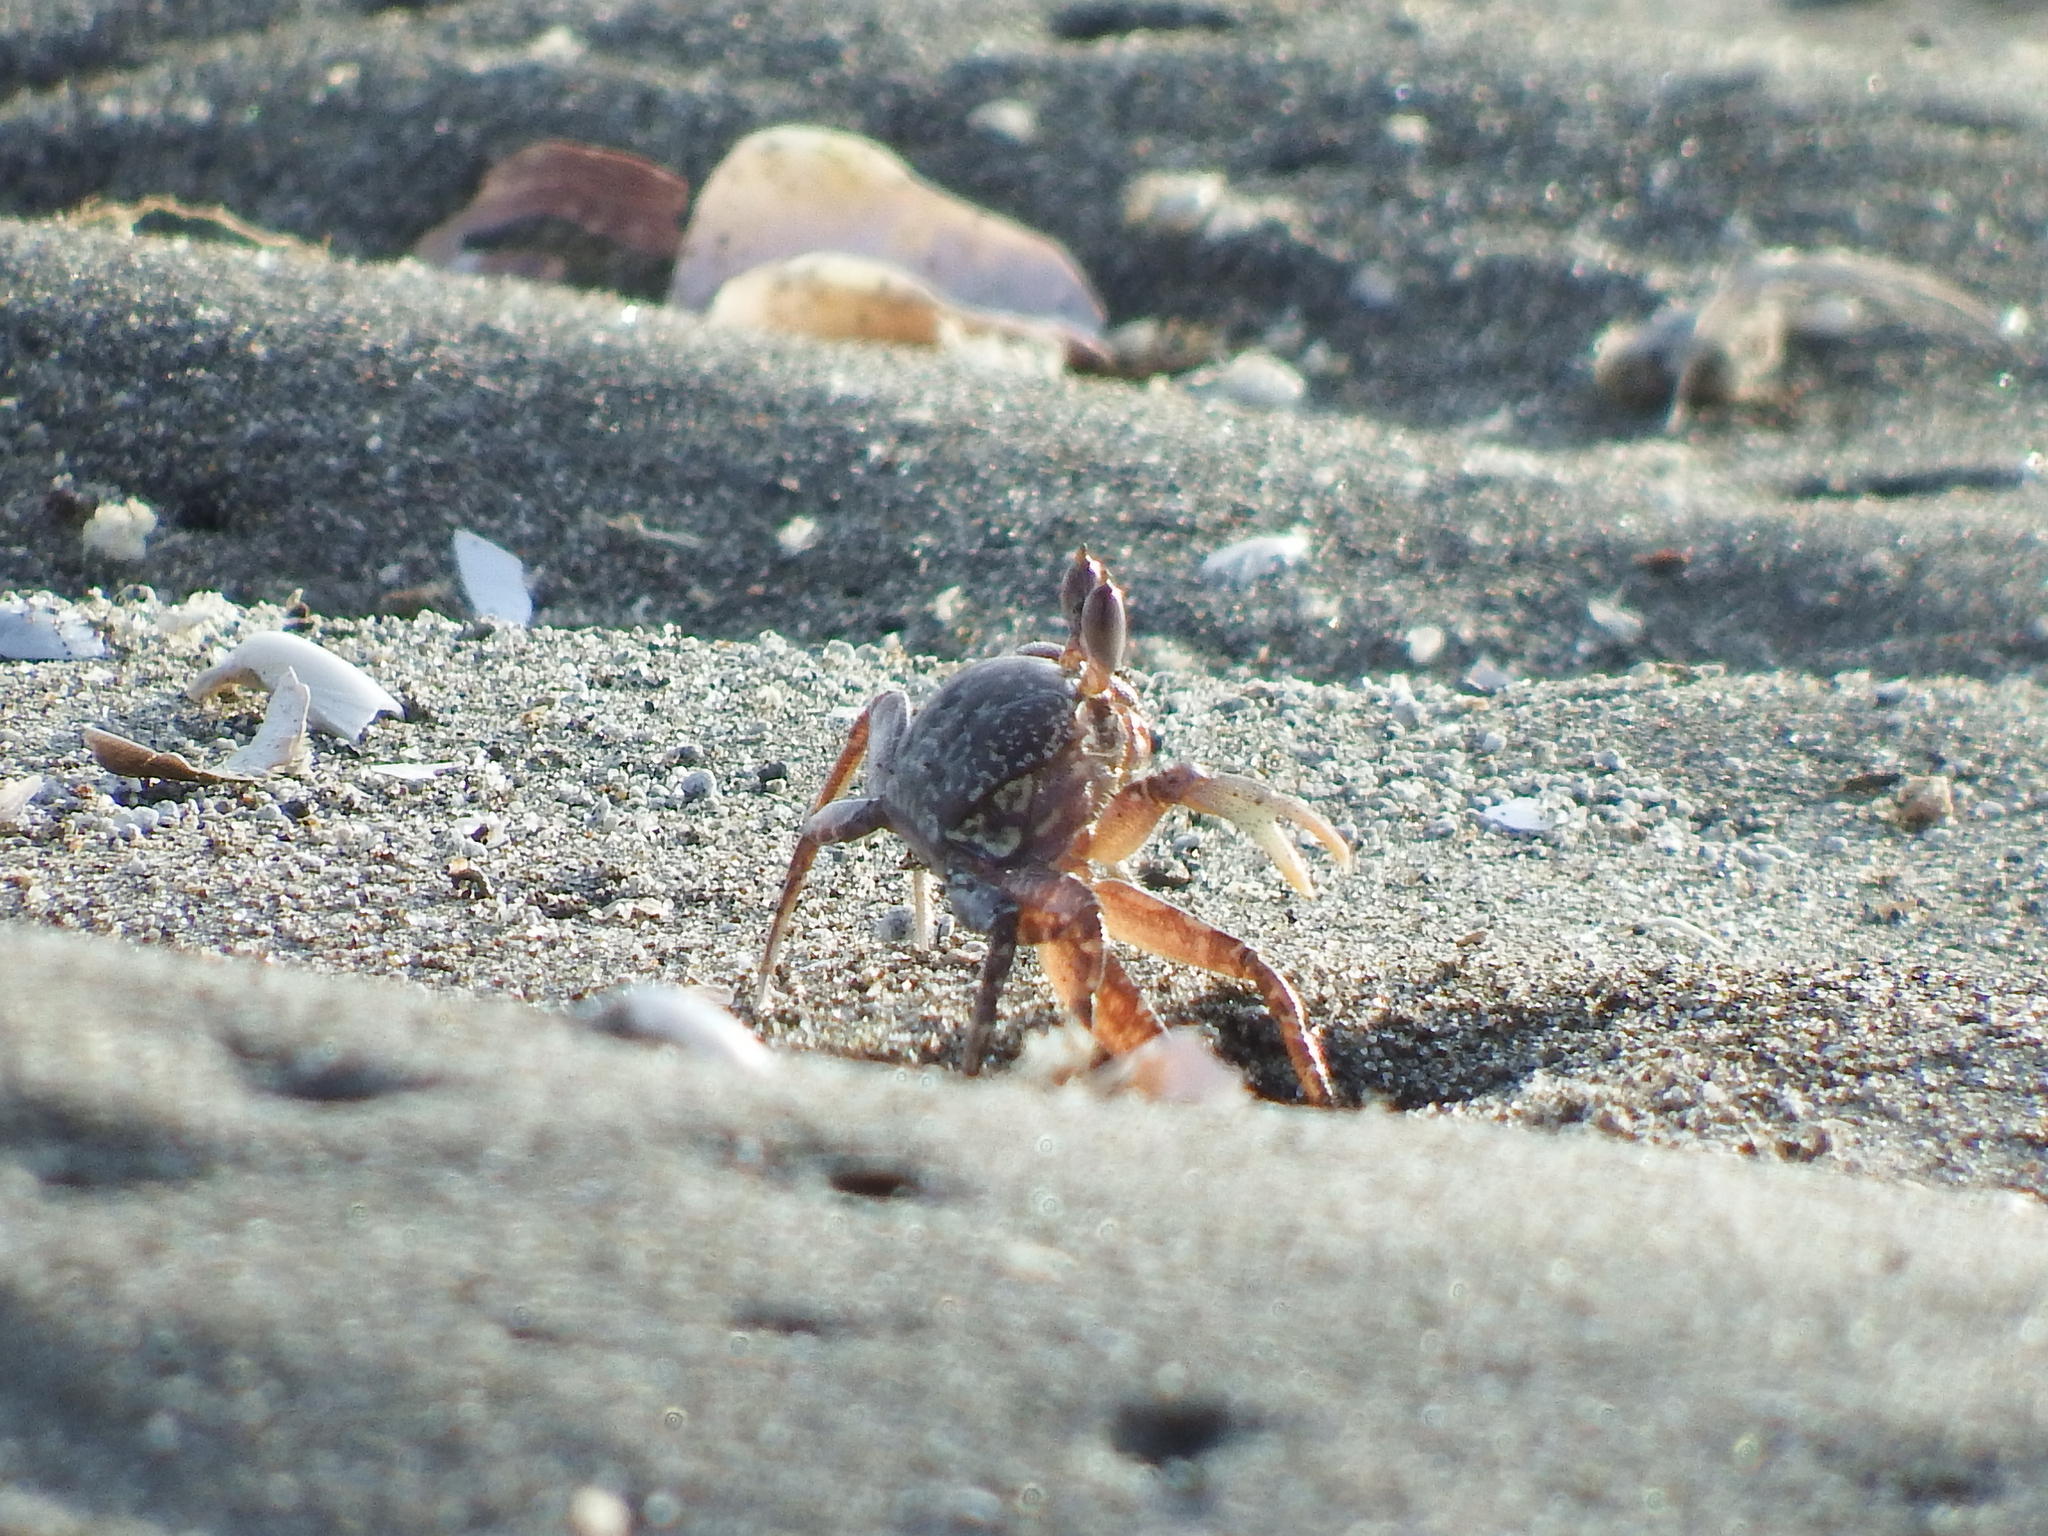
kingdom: Animalia
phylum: Arthropoda
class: Malacostraca
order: Decapoda
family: Ocypodidae
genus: Ocypode
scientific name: Ocypode gaudichaudii
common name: Pacific ghost crab
